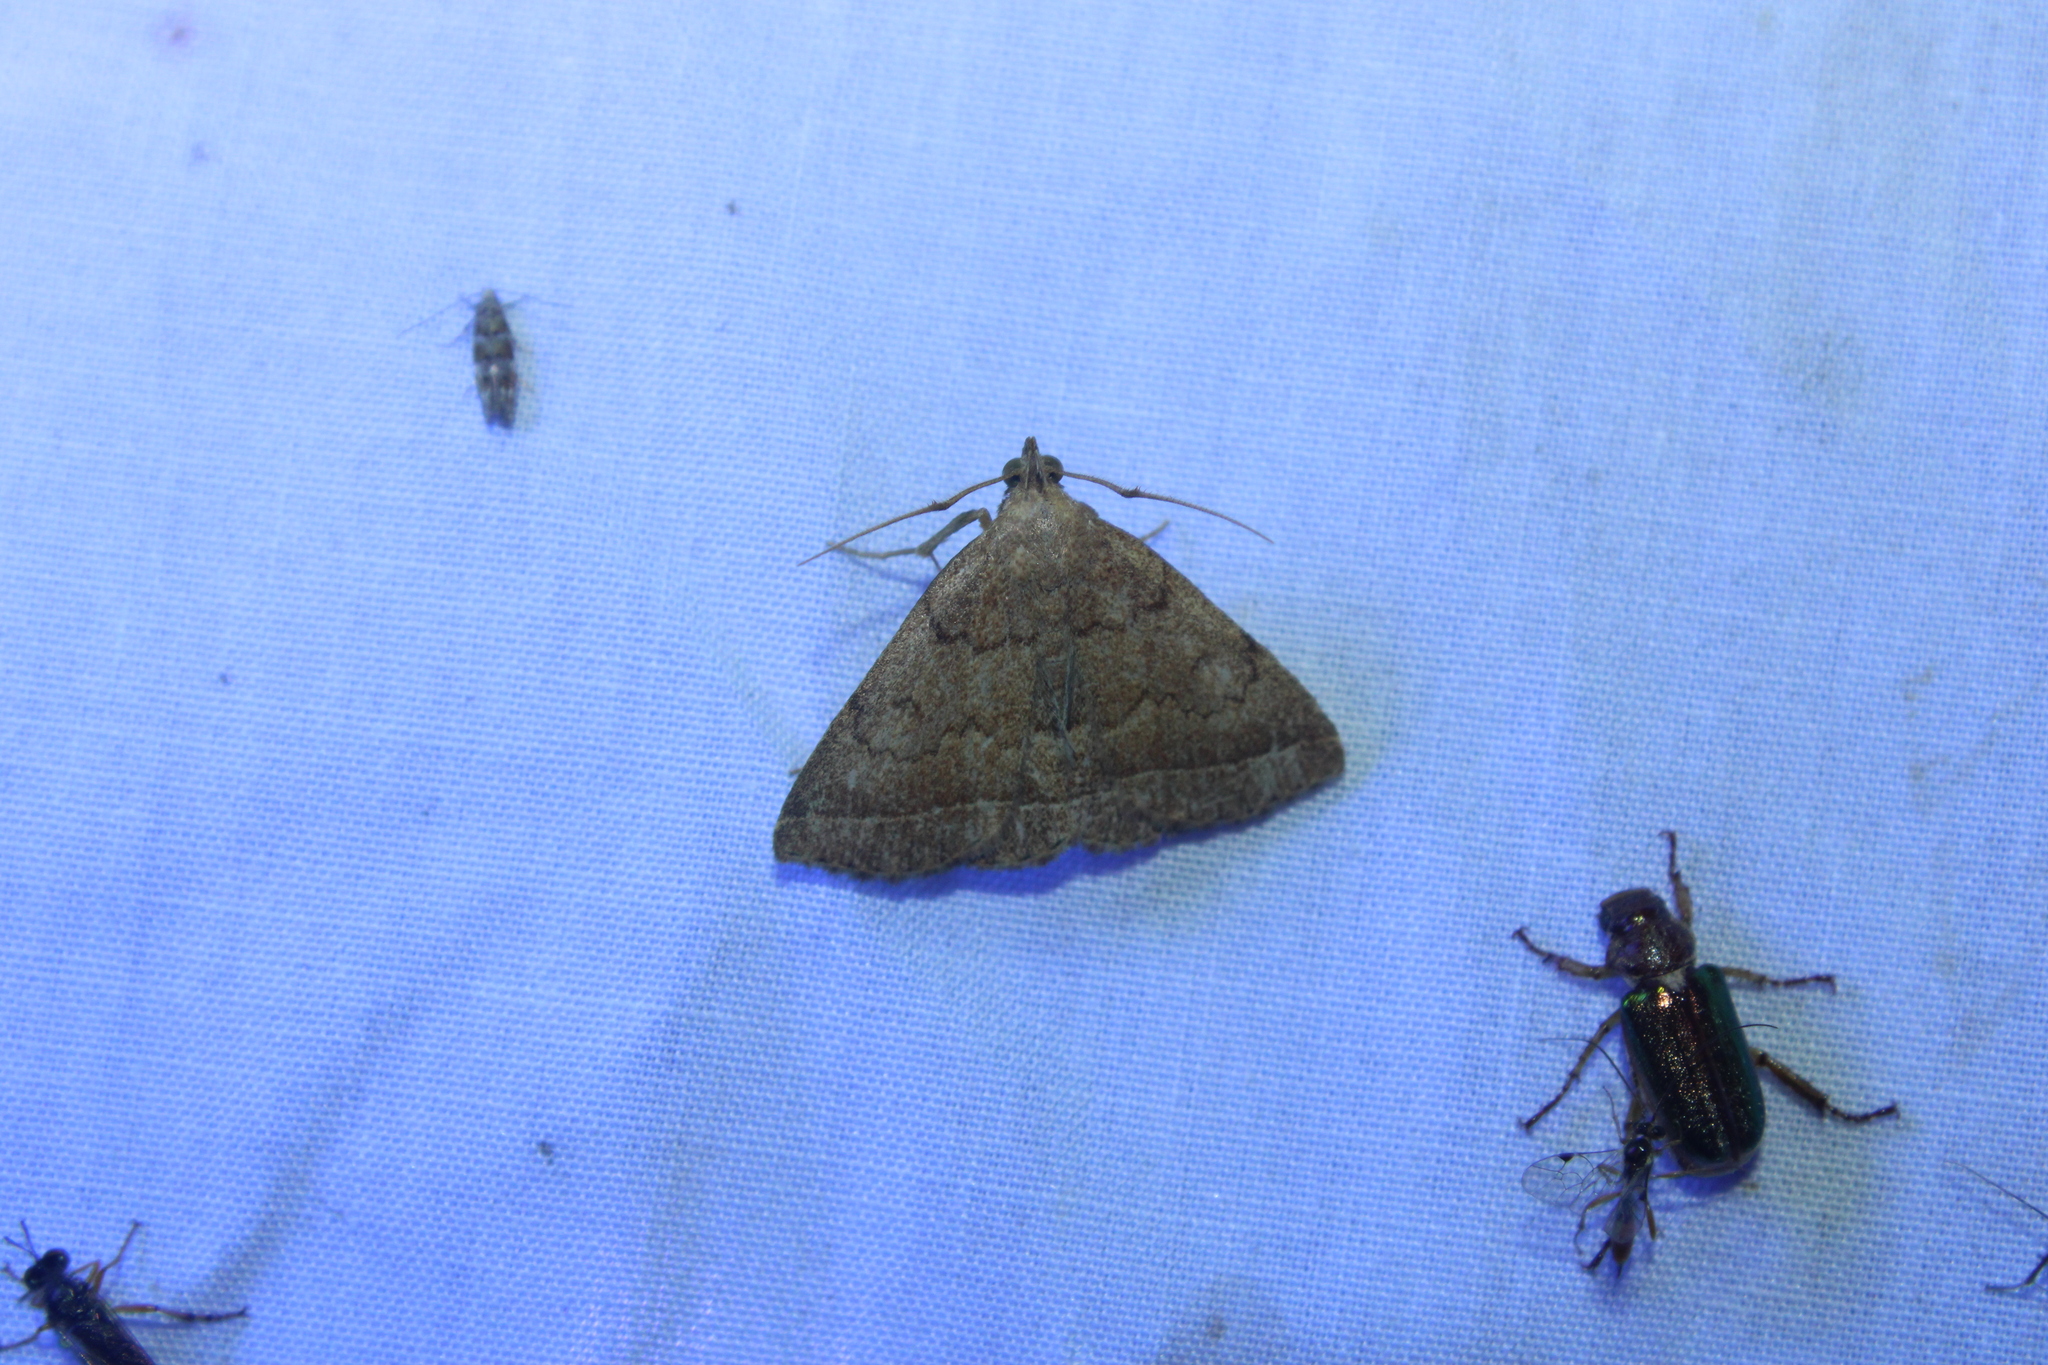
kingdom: Animalia
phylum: Arthropoda
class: Insecta
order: Lepidoptera
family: Erebidae
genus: Zanclognatha
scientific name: Zanclognatha jacchusalis
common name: Yellowish zanclognatha
